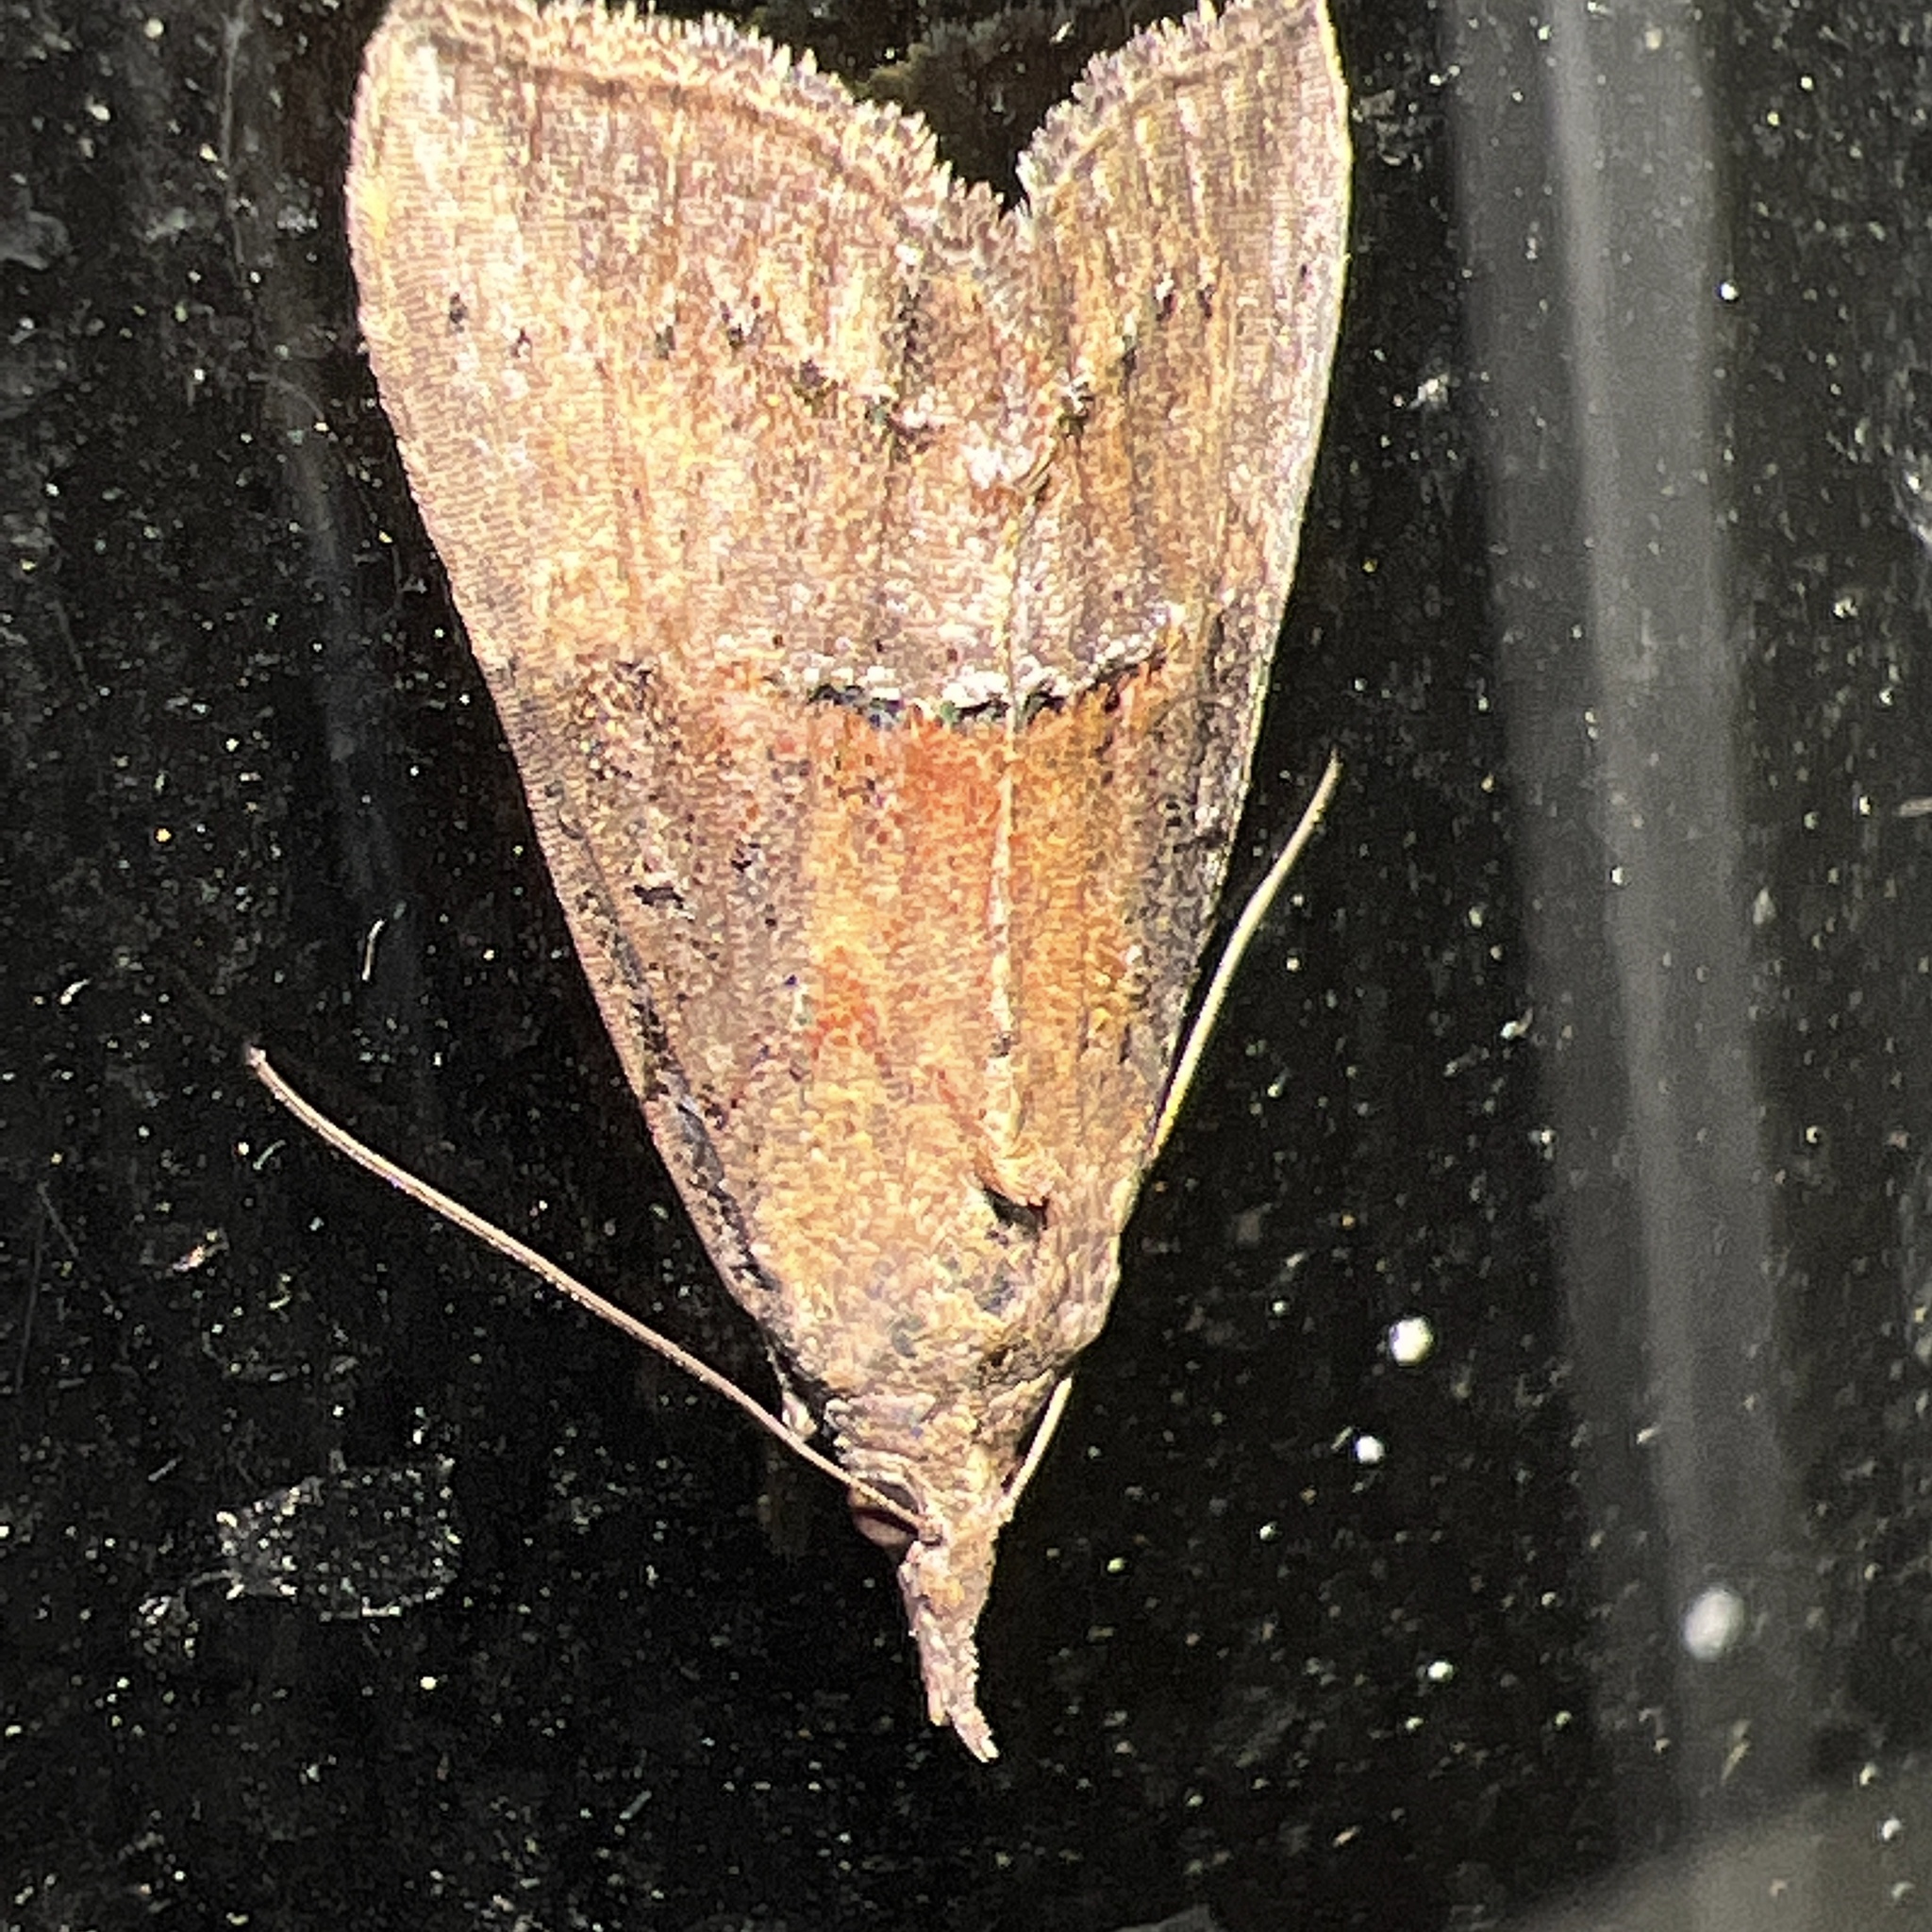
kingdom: Animalia
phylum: Arthropoda
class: Insecta
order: Lepidoptera
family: Erebidae
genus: Hypena
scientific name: Hypena scabra
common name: Green cloverworm
